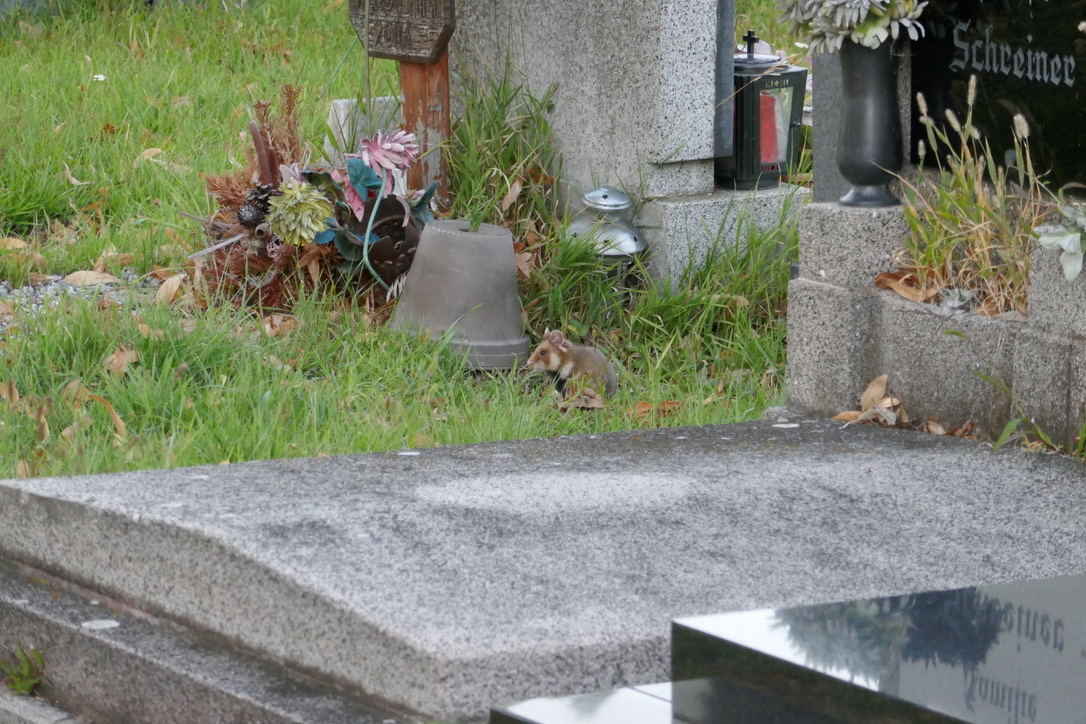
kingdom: Animalia
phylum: Chordata
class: Mammalia
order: Rodentia
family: Cricetidae
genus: Cricetus
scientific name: Cricetus cricetus
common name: Common hamster
